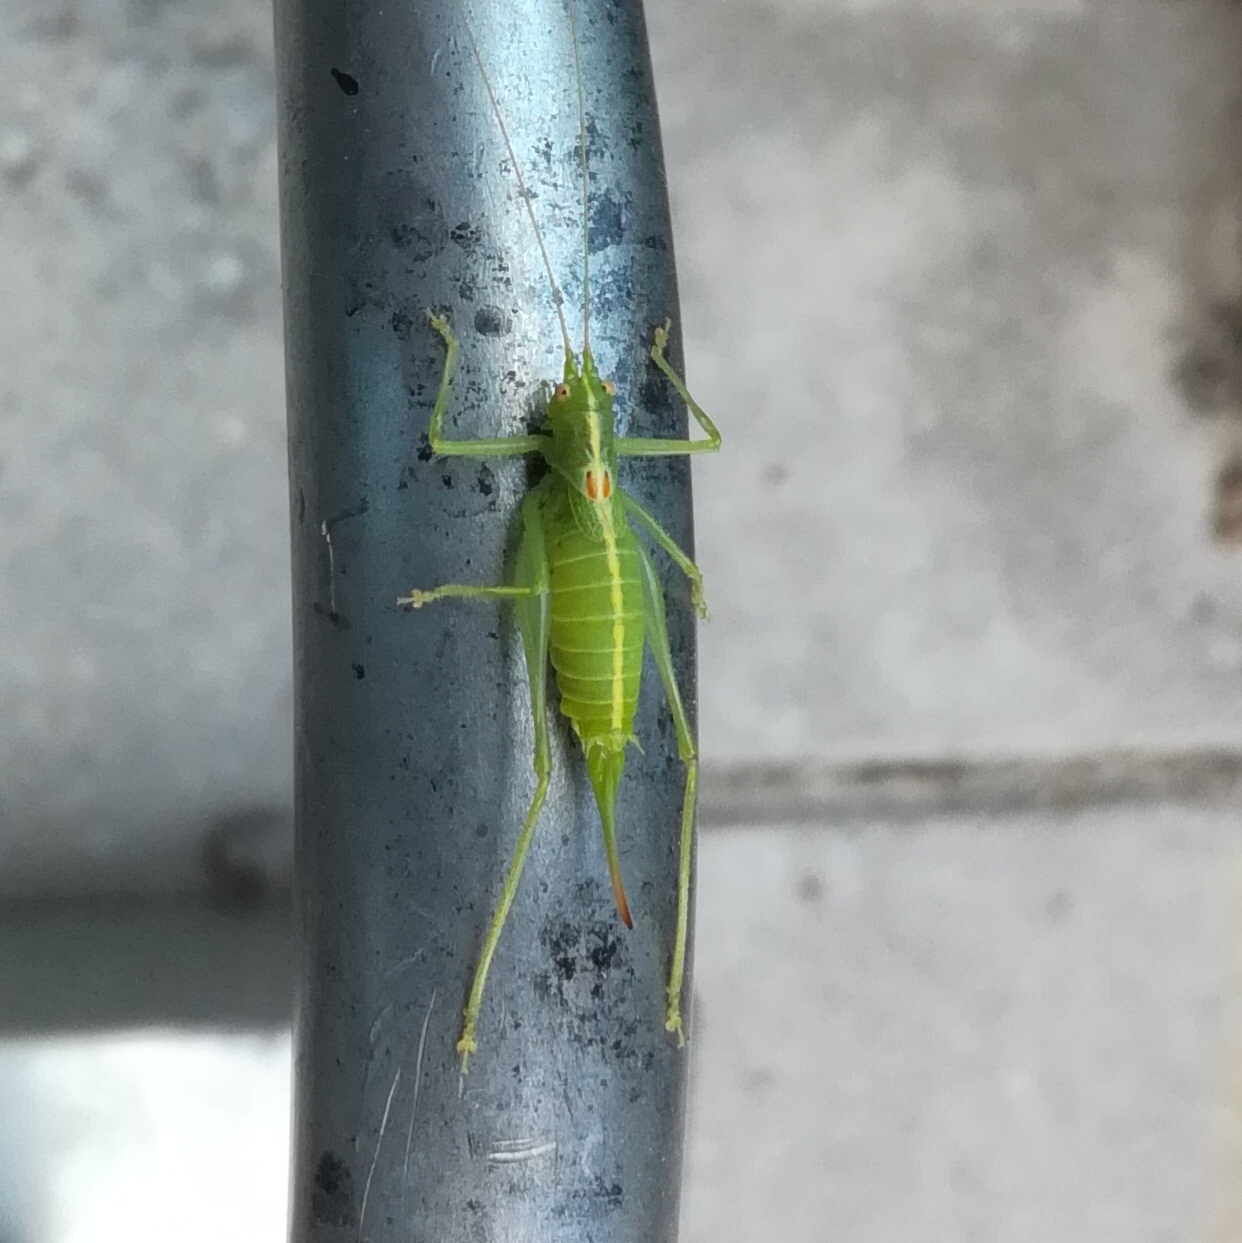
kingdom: Animalia
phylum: Arthropoda
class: Insecta
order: Orthoptera
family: Tettigoniidae
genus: Meconema
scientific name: Meconema meridionale
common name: Southern oak bush-cricket
